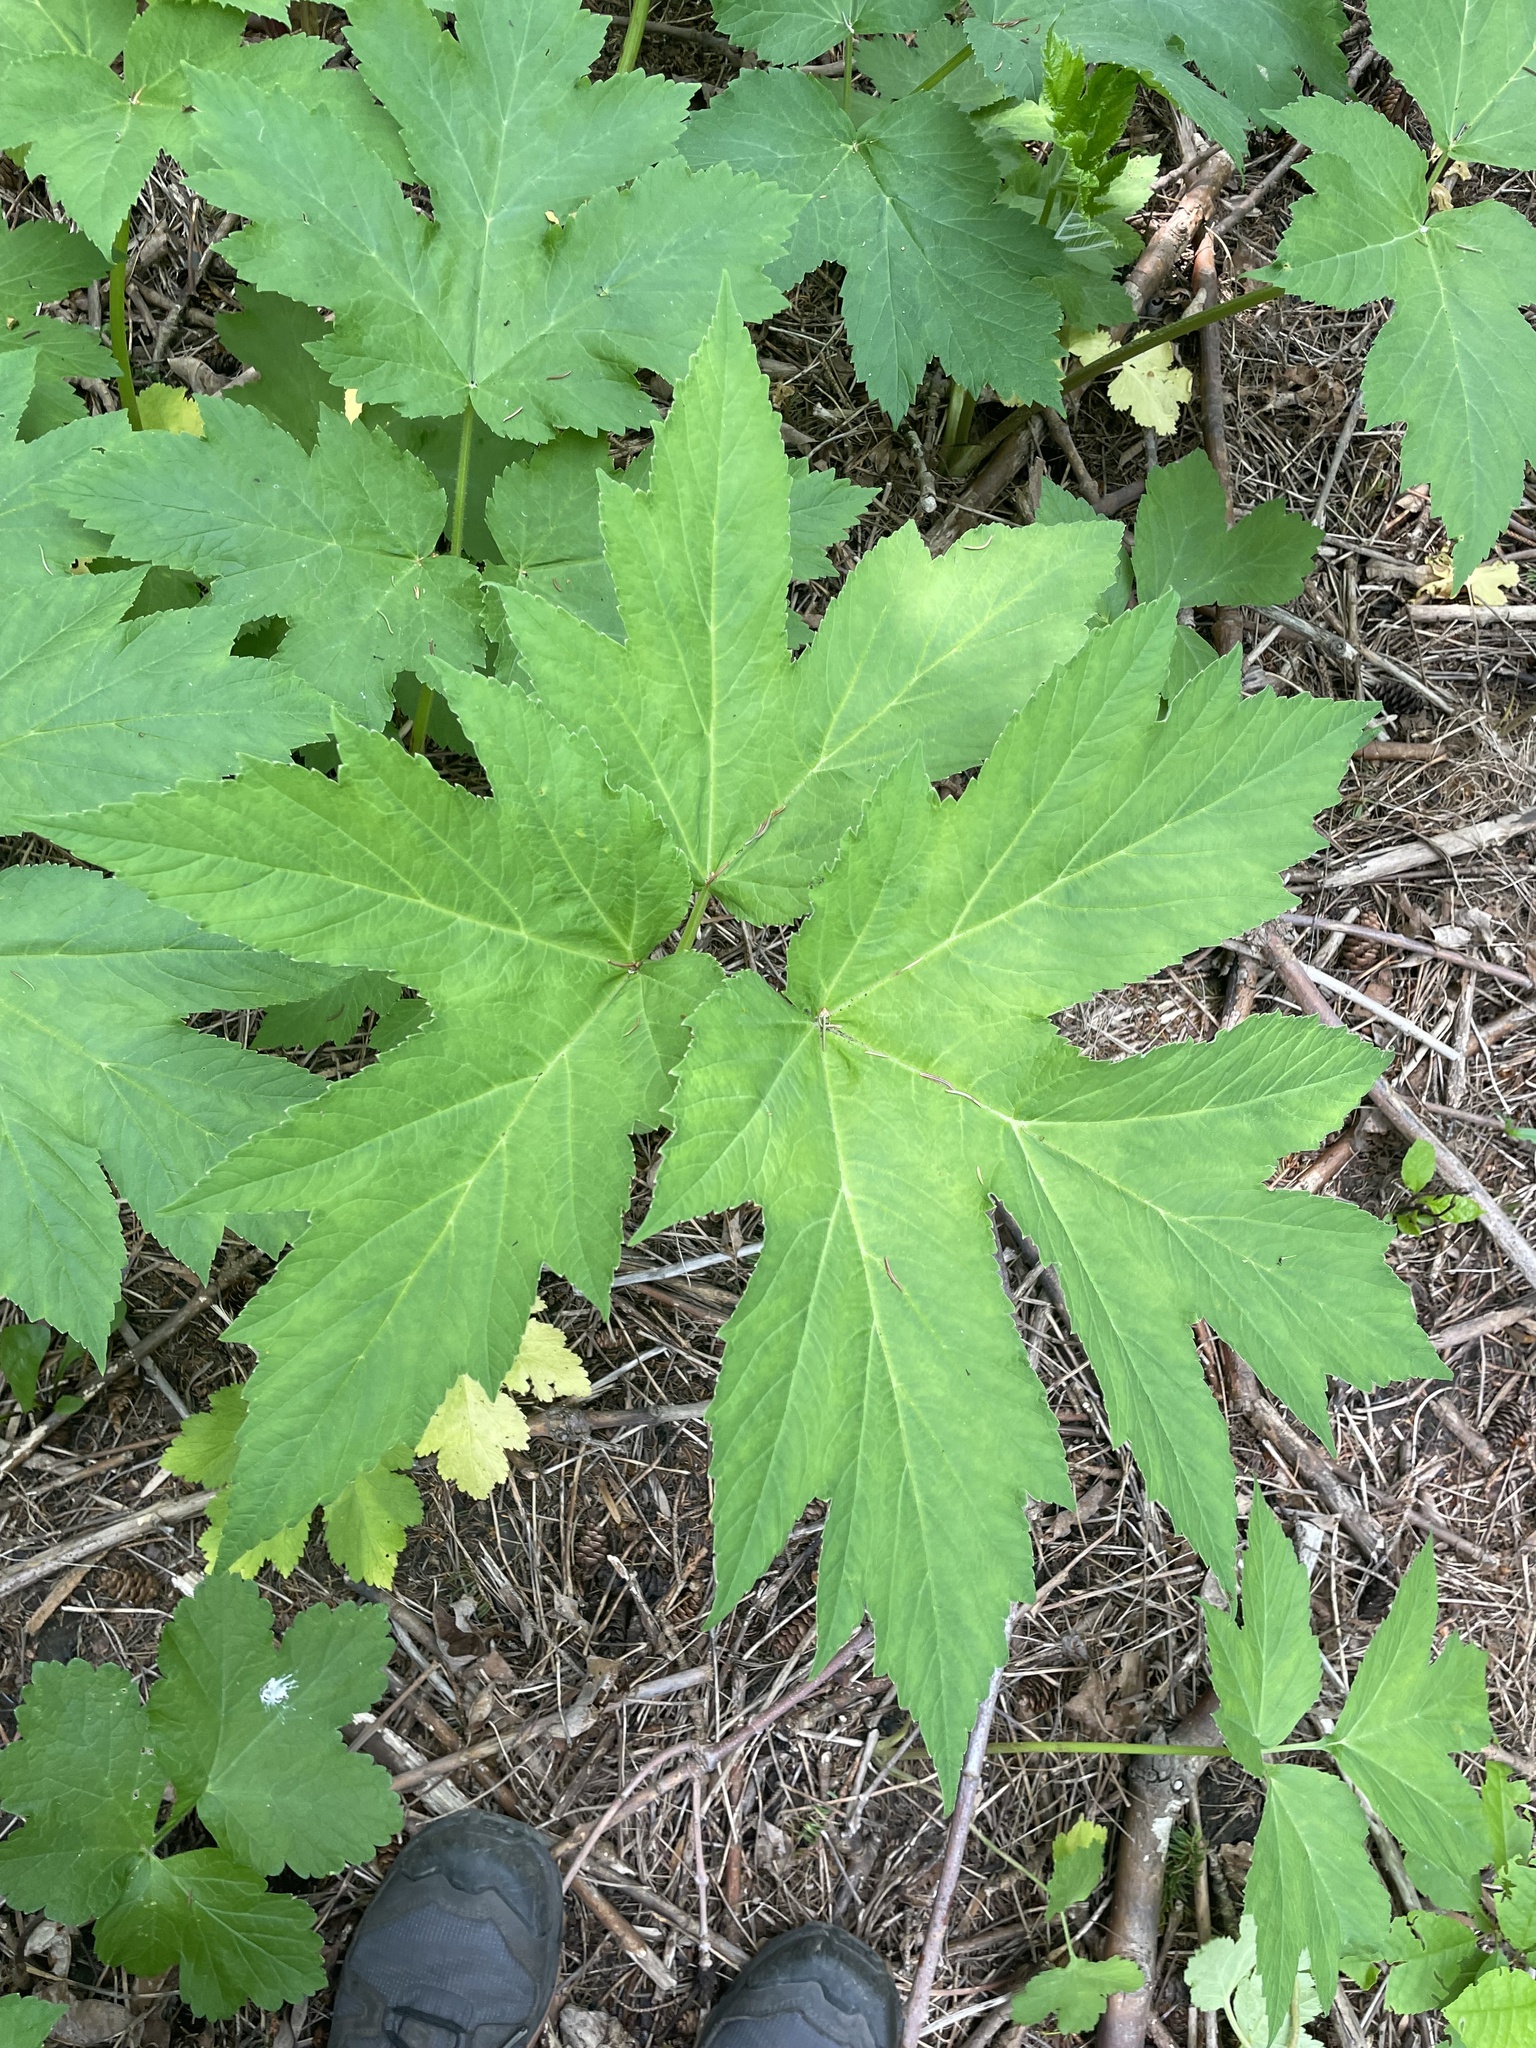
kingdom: Plantae
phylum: Tracheophyta
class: Magnoliopsida
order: Apiales
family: Apiaceae
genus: Heracleum
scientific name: Heracleum maximum
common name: American cow parsnip
